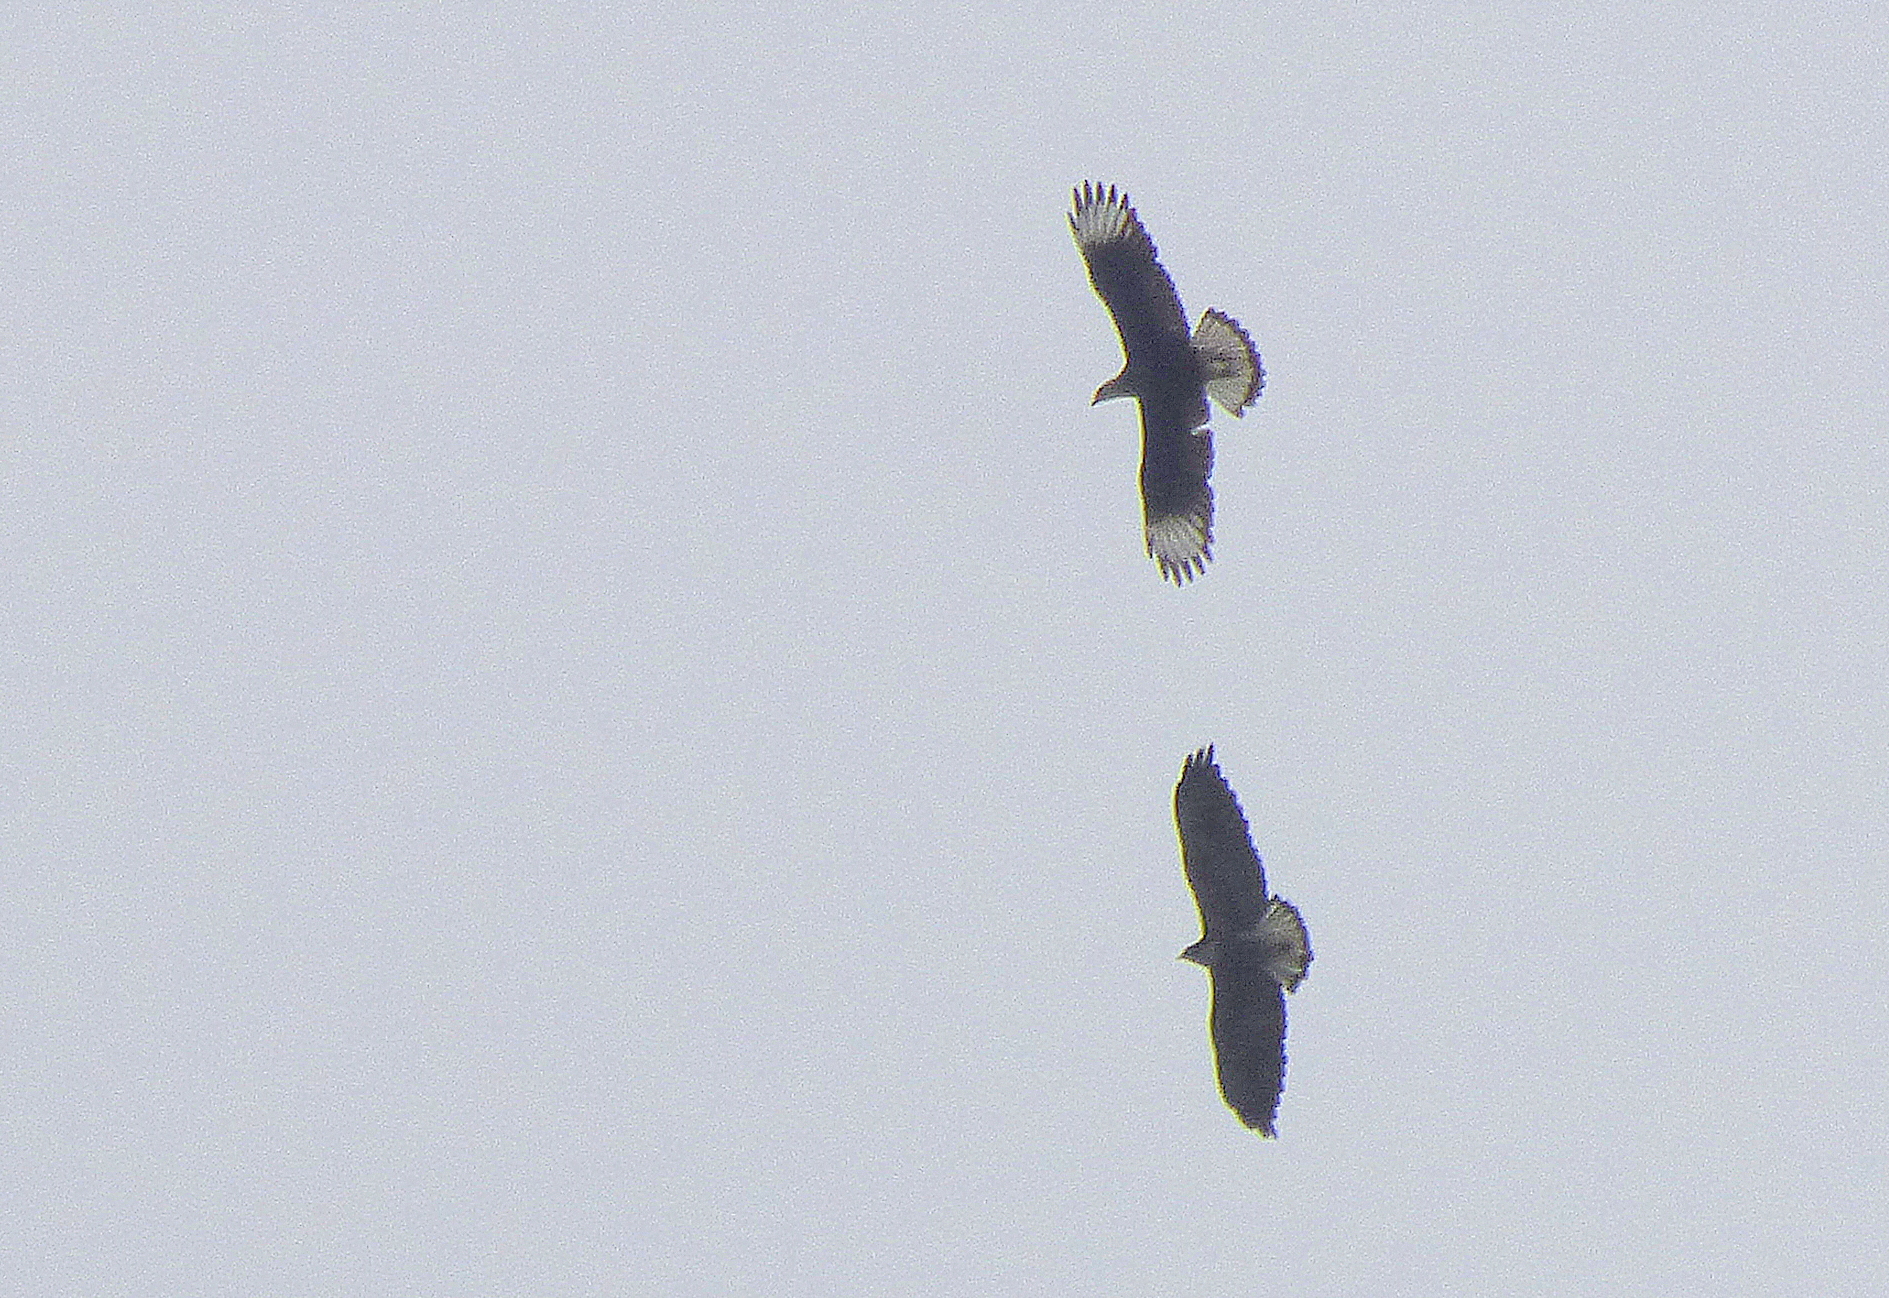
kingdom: Animalia
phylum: Chordata
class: Aves
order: Accipitriformes
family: Accipitridae
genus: Buteo
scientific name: Buteo albicaudatus
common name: White-tailed hawk
